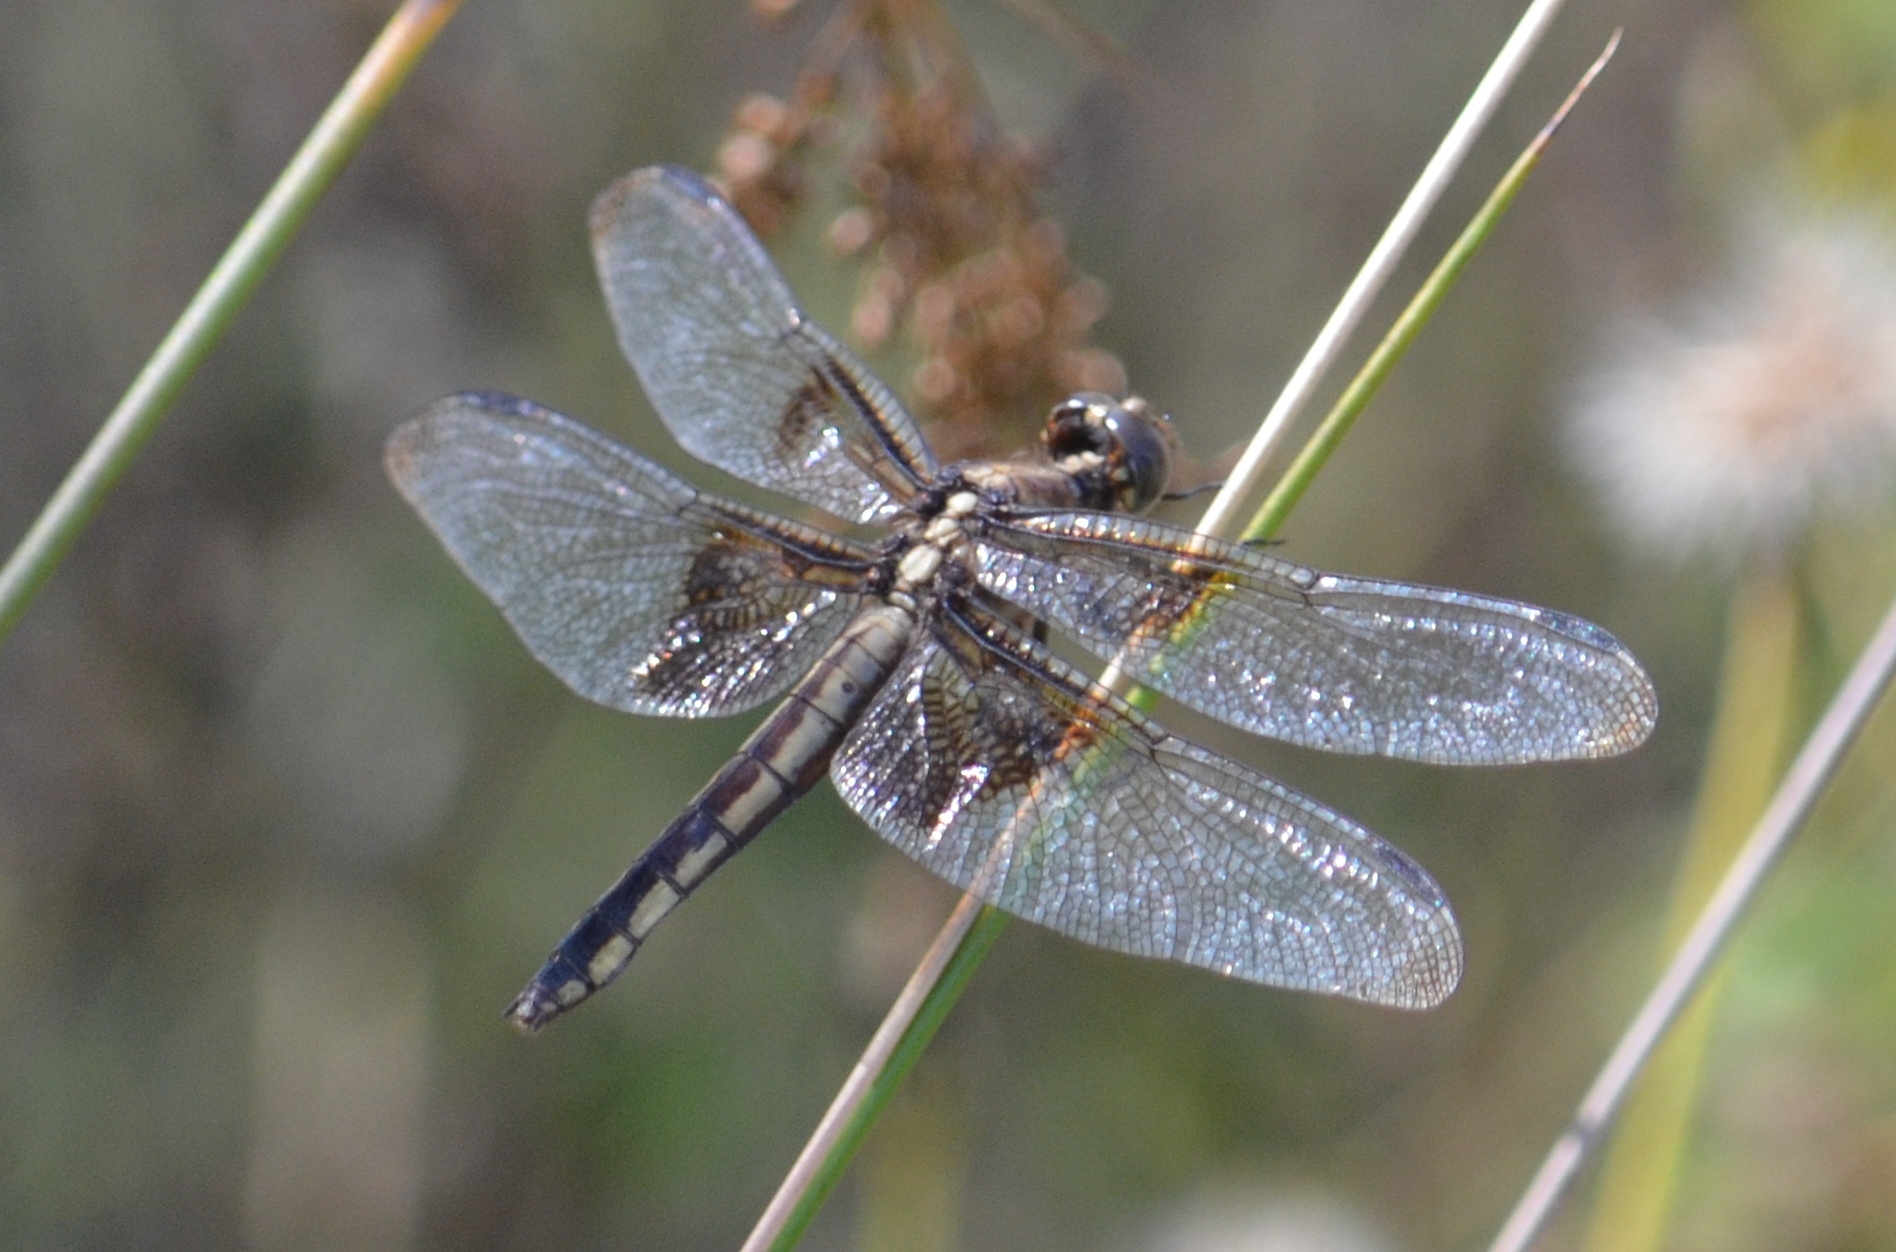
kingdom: Animalia
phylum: Arthropoda
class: Insecta
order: Odonata
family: Libellulidae
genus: Libellula
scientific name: Libellula luctuosa
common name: Widow skimmer
